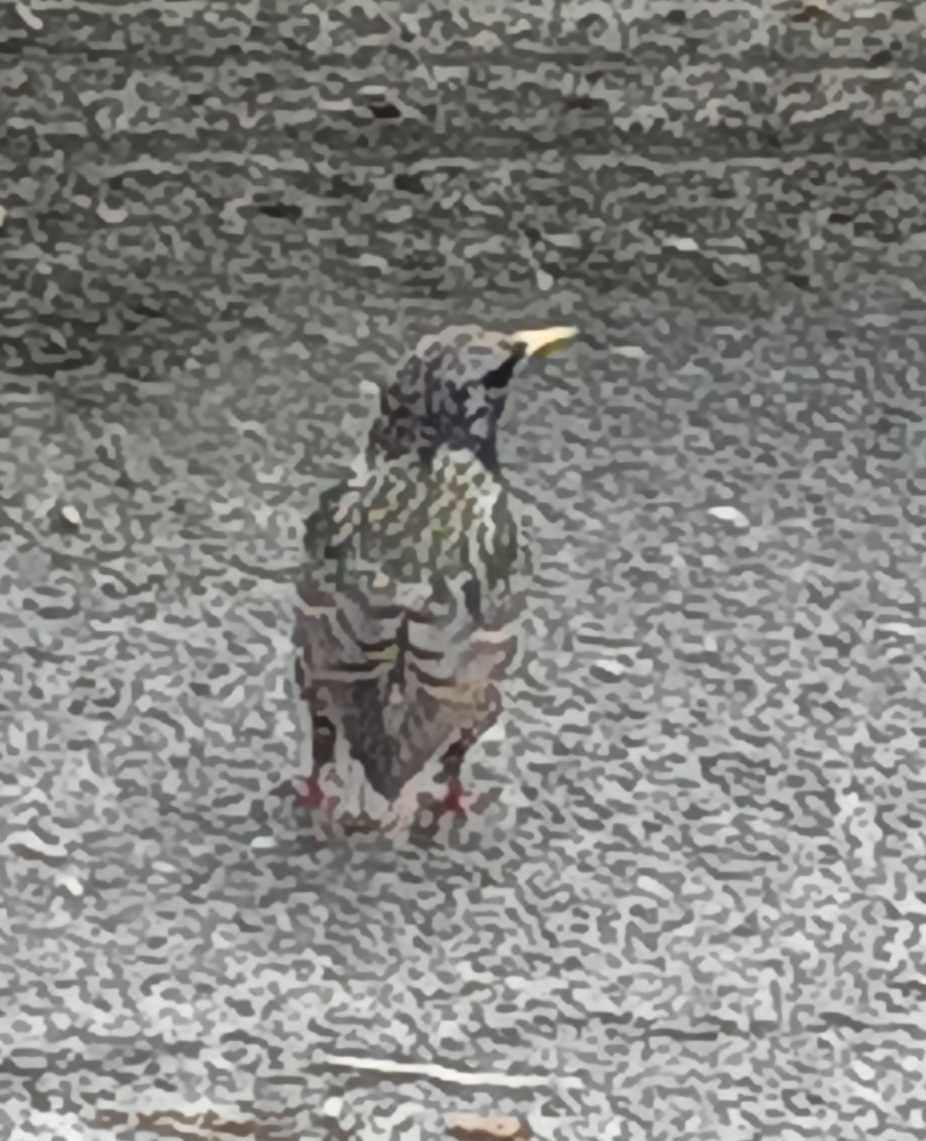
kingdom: Animalia
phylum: Chordata
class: Aves
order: Passeriformes
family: Sturnidae
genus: Sturnus
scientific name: Sturnus vulgaris
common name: Common starling
